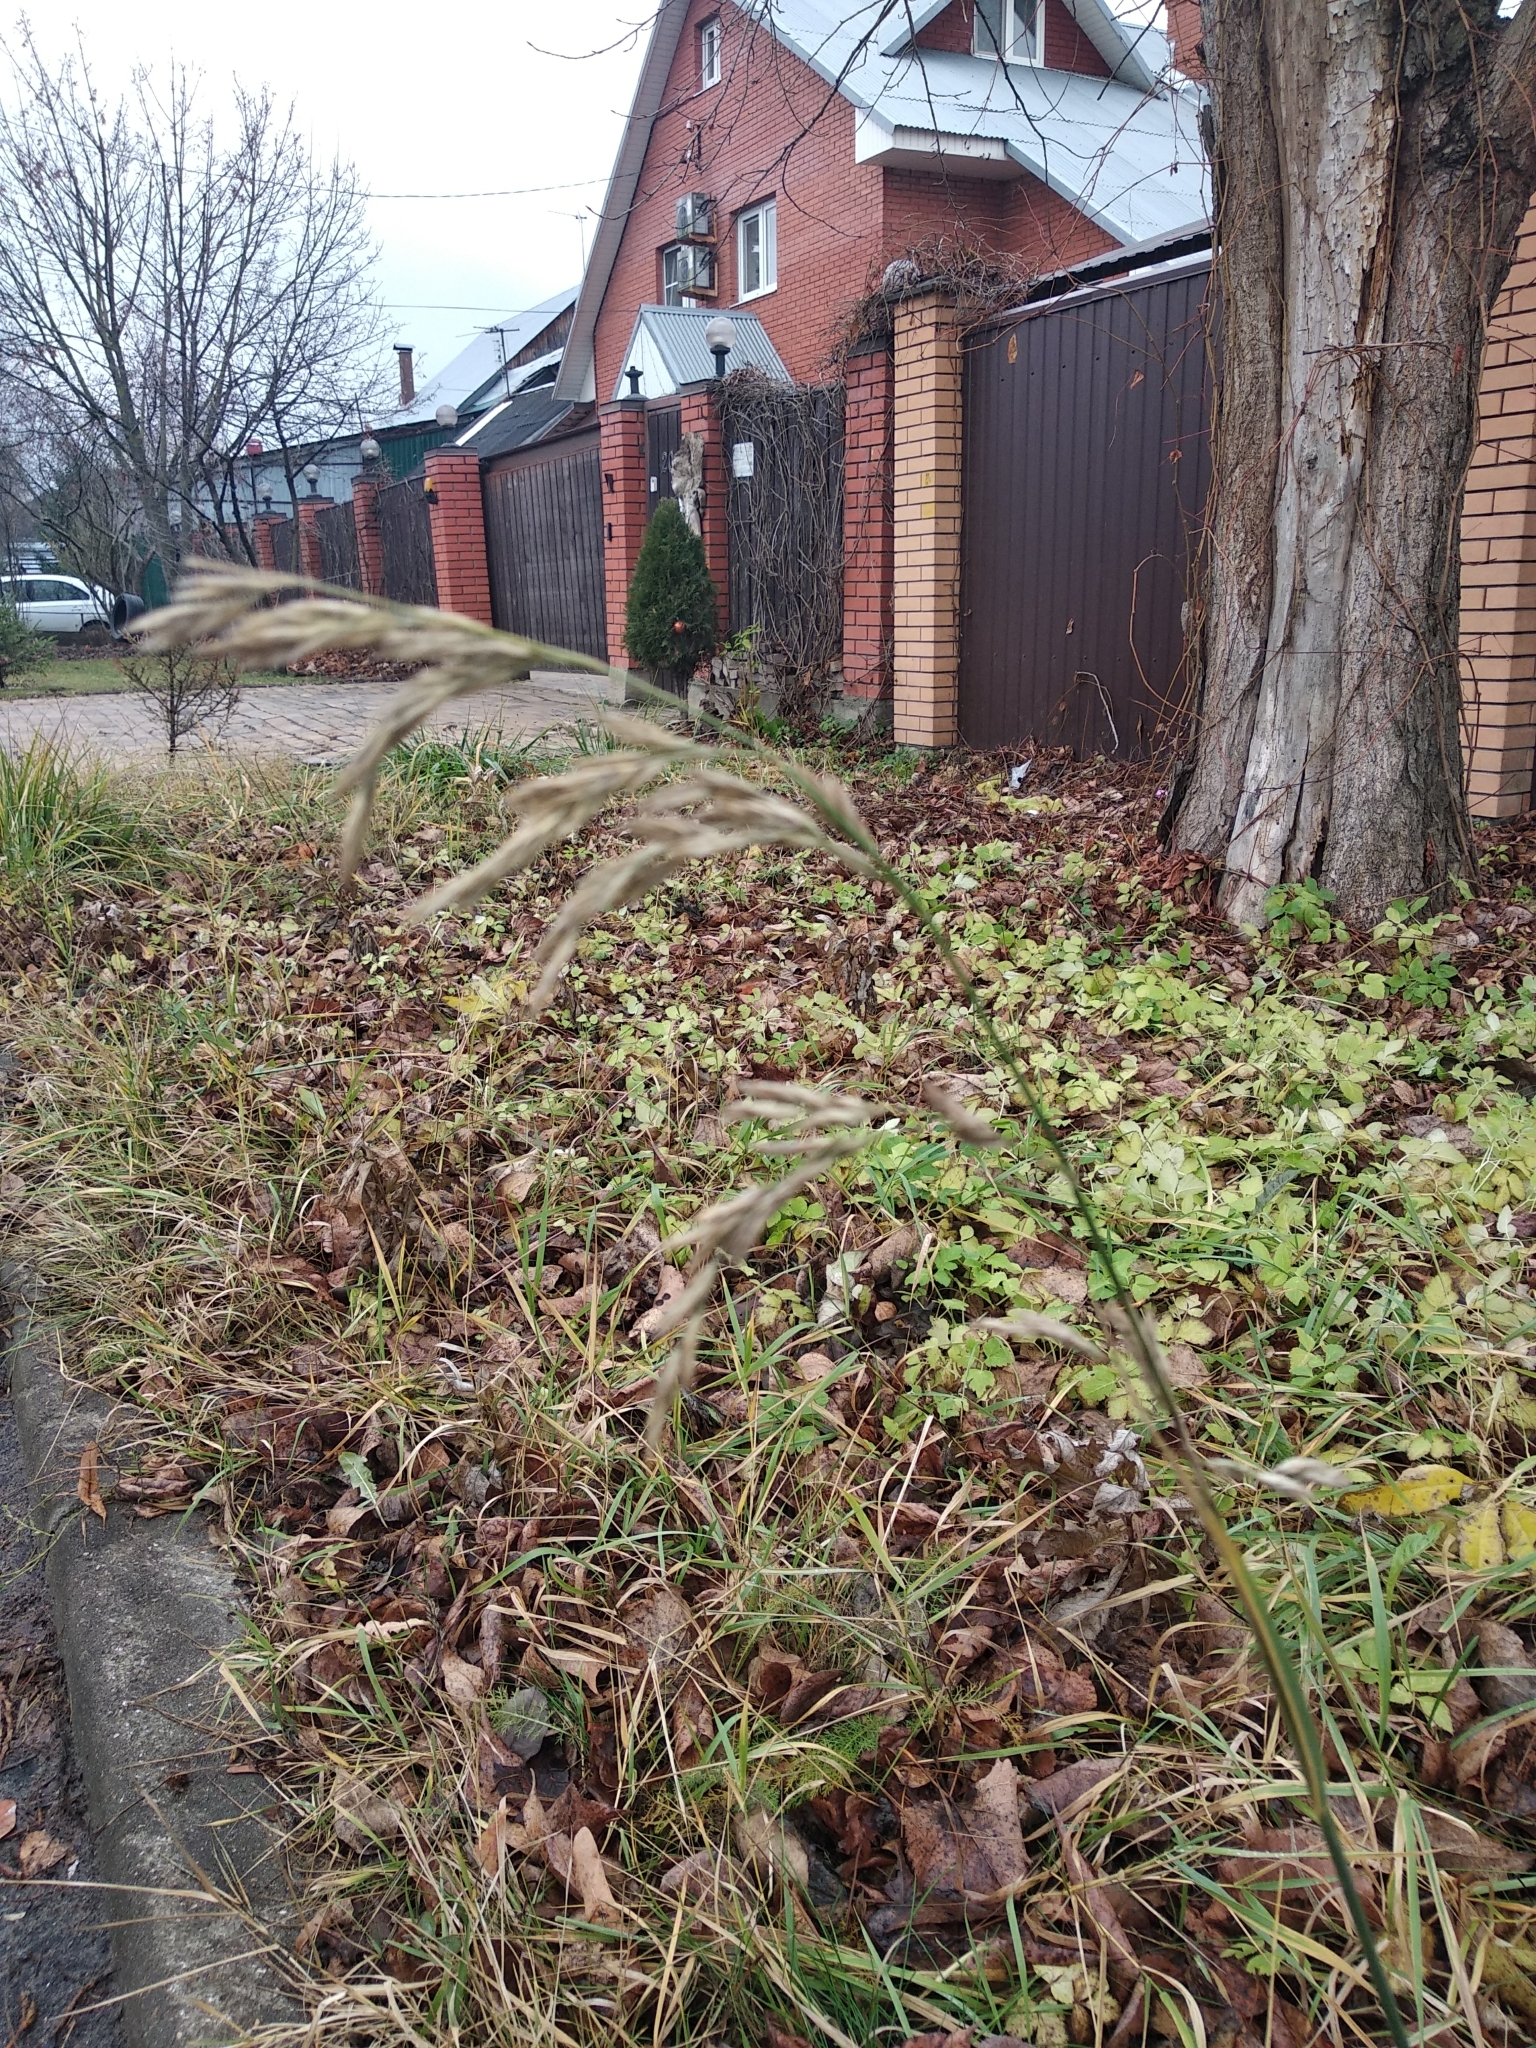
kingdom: Plantae
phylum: Tracheophyta
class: Liliopsida
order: Poales
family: Poaceae
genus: Lolium
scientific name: Lolium arundinaceum
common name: Reed fescue
